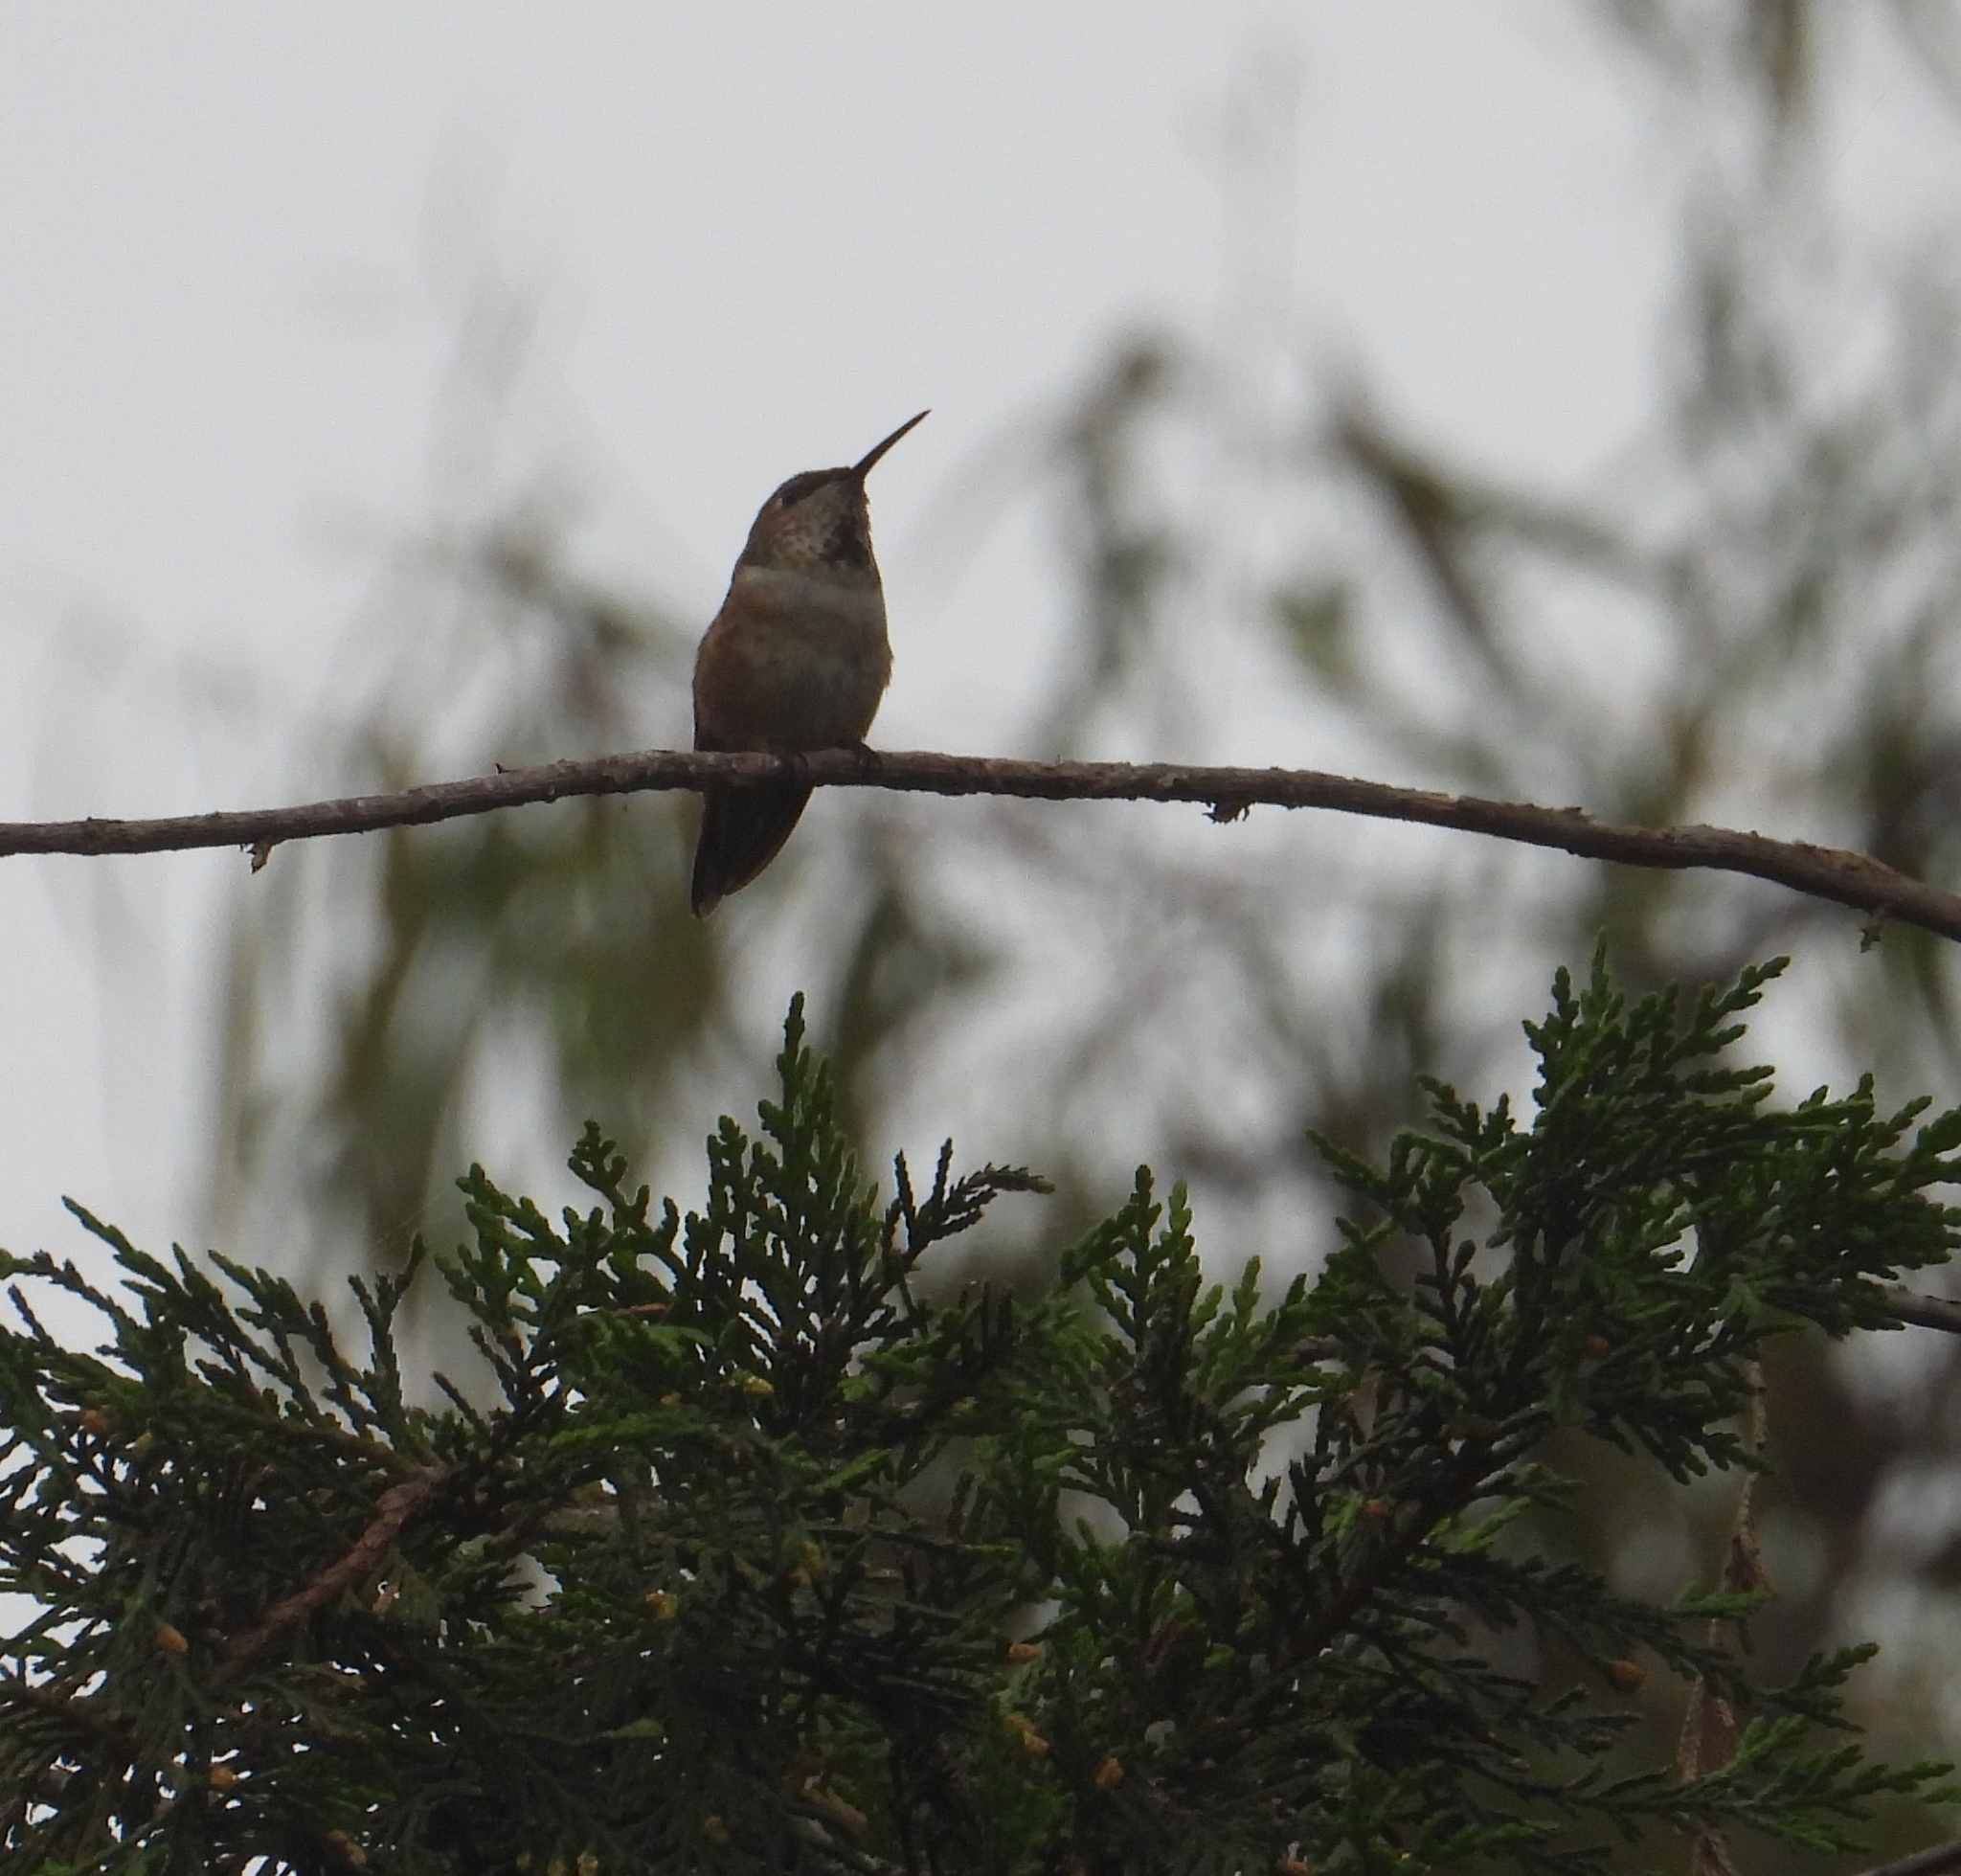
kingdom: Animalia
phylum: Chordata
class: Aves
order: Apodiformes
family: Trochilidae
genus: Selasphorus
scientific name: Selasphorus sasin
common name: Allen's hummingbird
